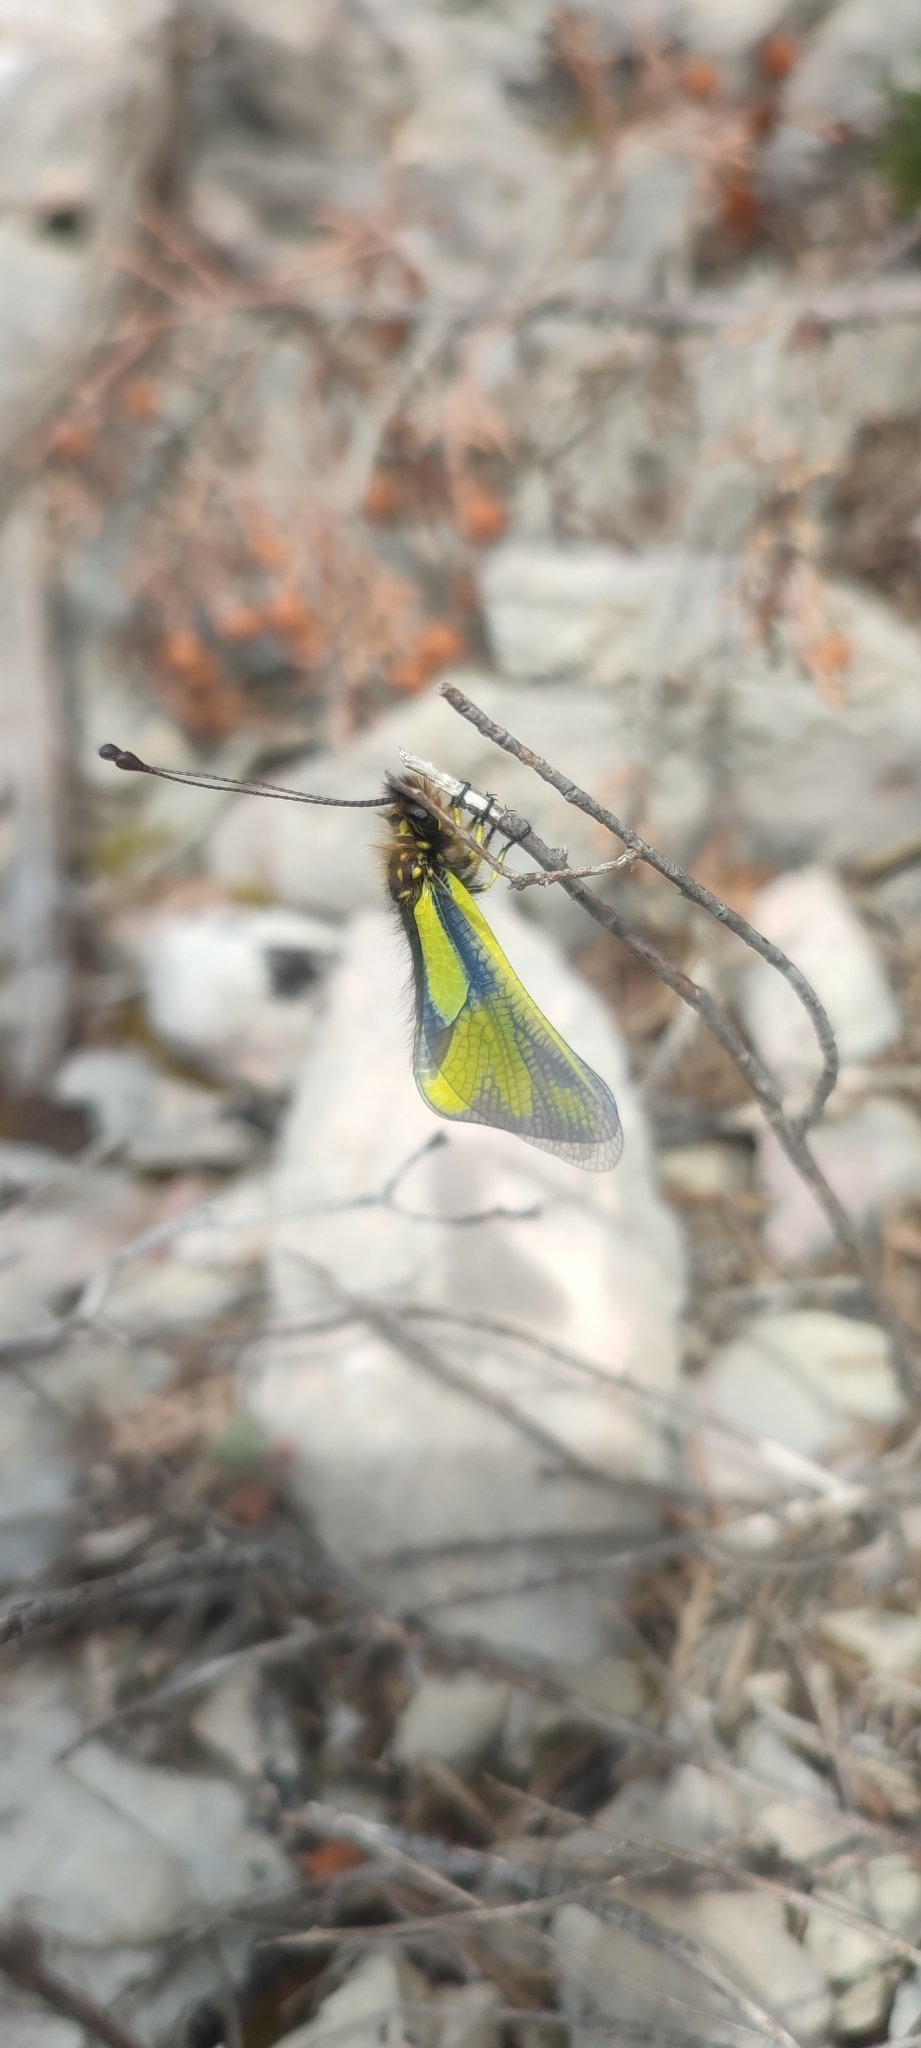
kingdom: Animalia
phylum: Arthropoda
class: Insecta
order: Neuroptera
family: Ascalaphidae
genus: Libelloides
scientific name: Libelloides coccajus
